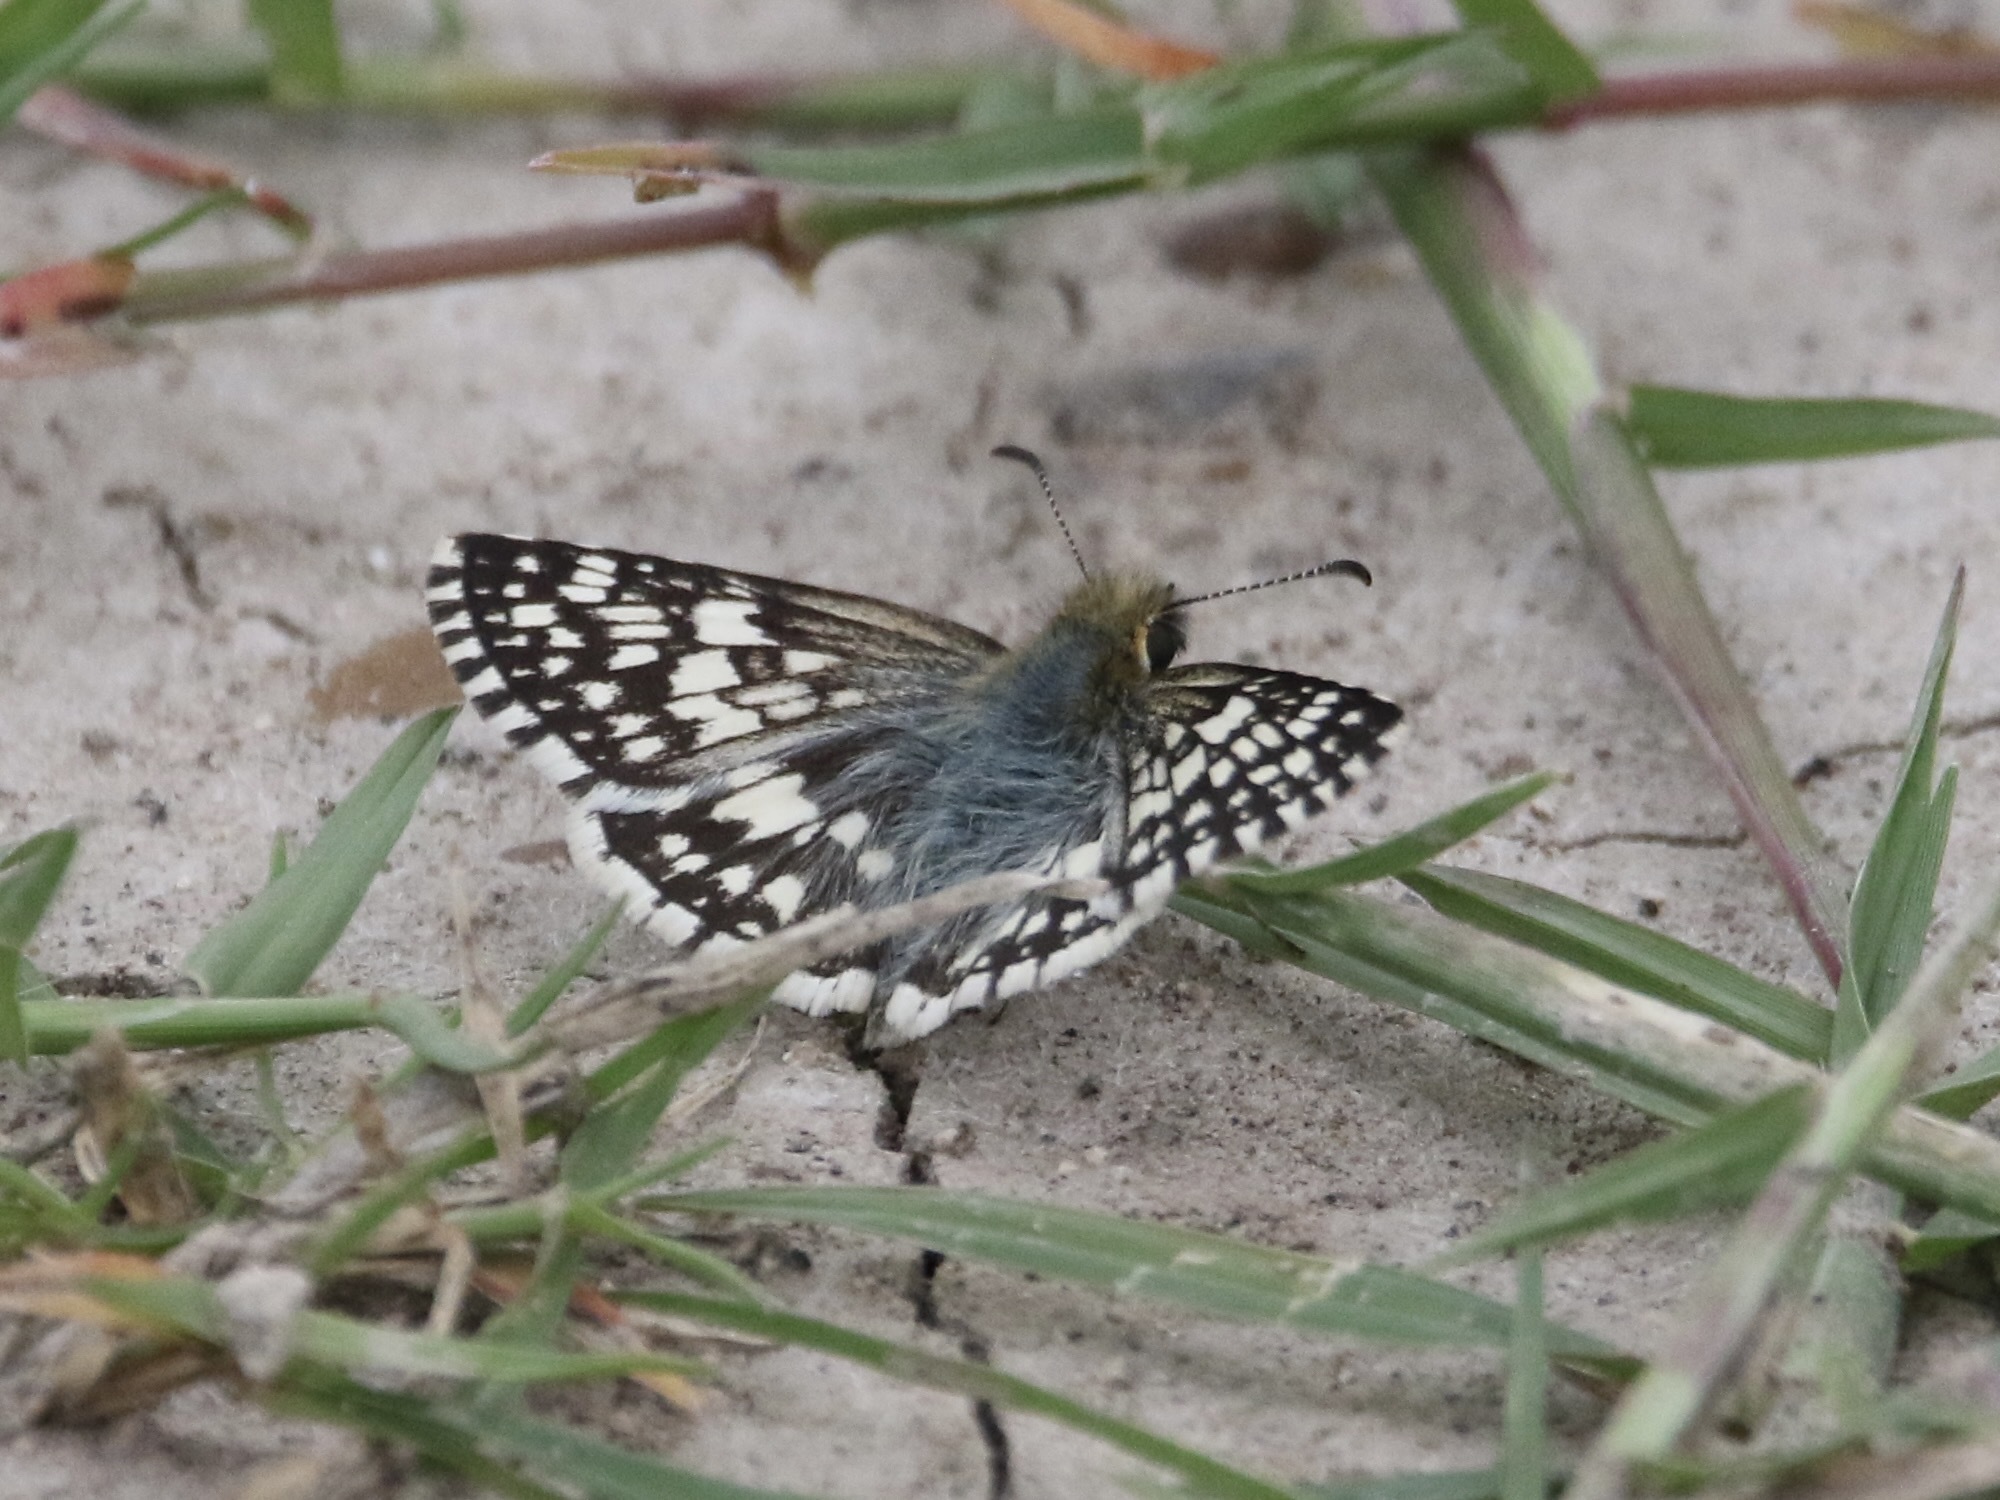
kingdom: Animalia
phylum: Arthropoda
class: Insecta
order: Lepidoptera
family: Hesperiidae
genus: Burnsius
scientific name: Burnsius
